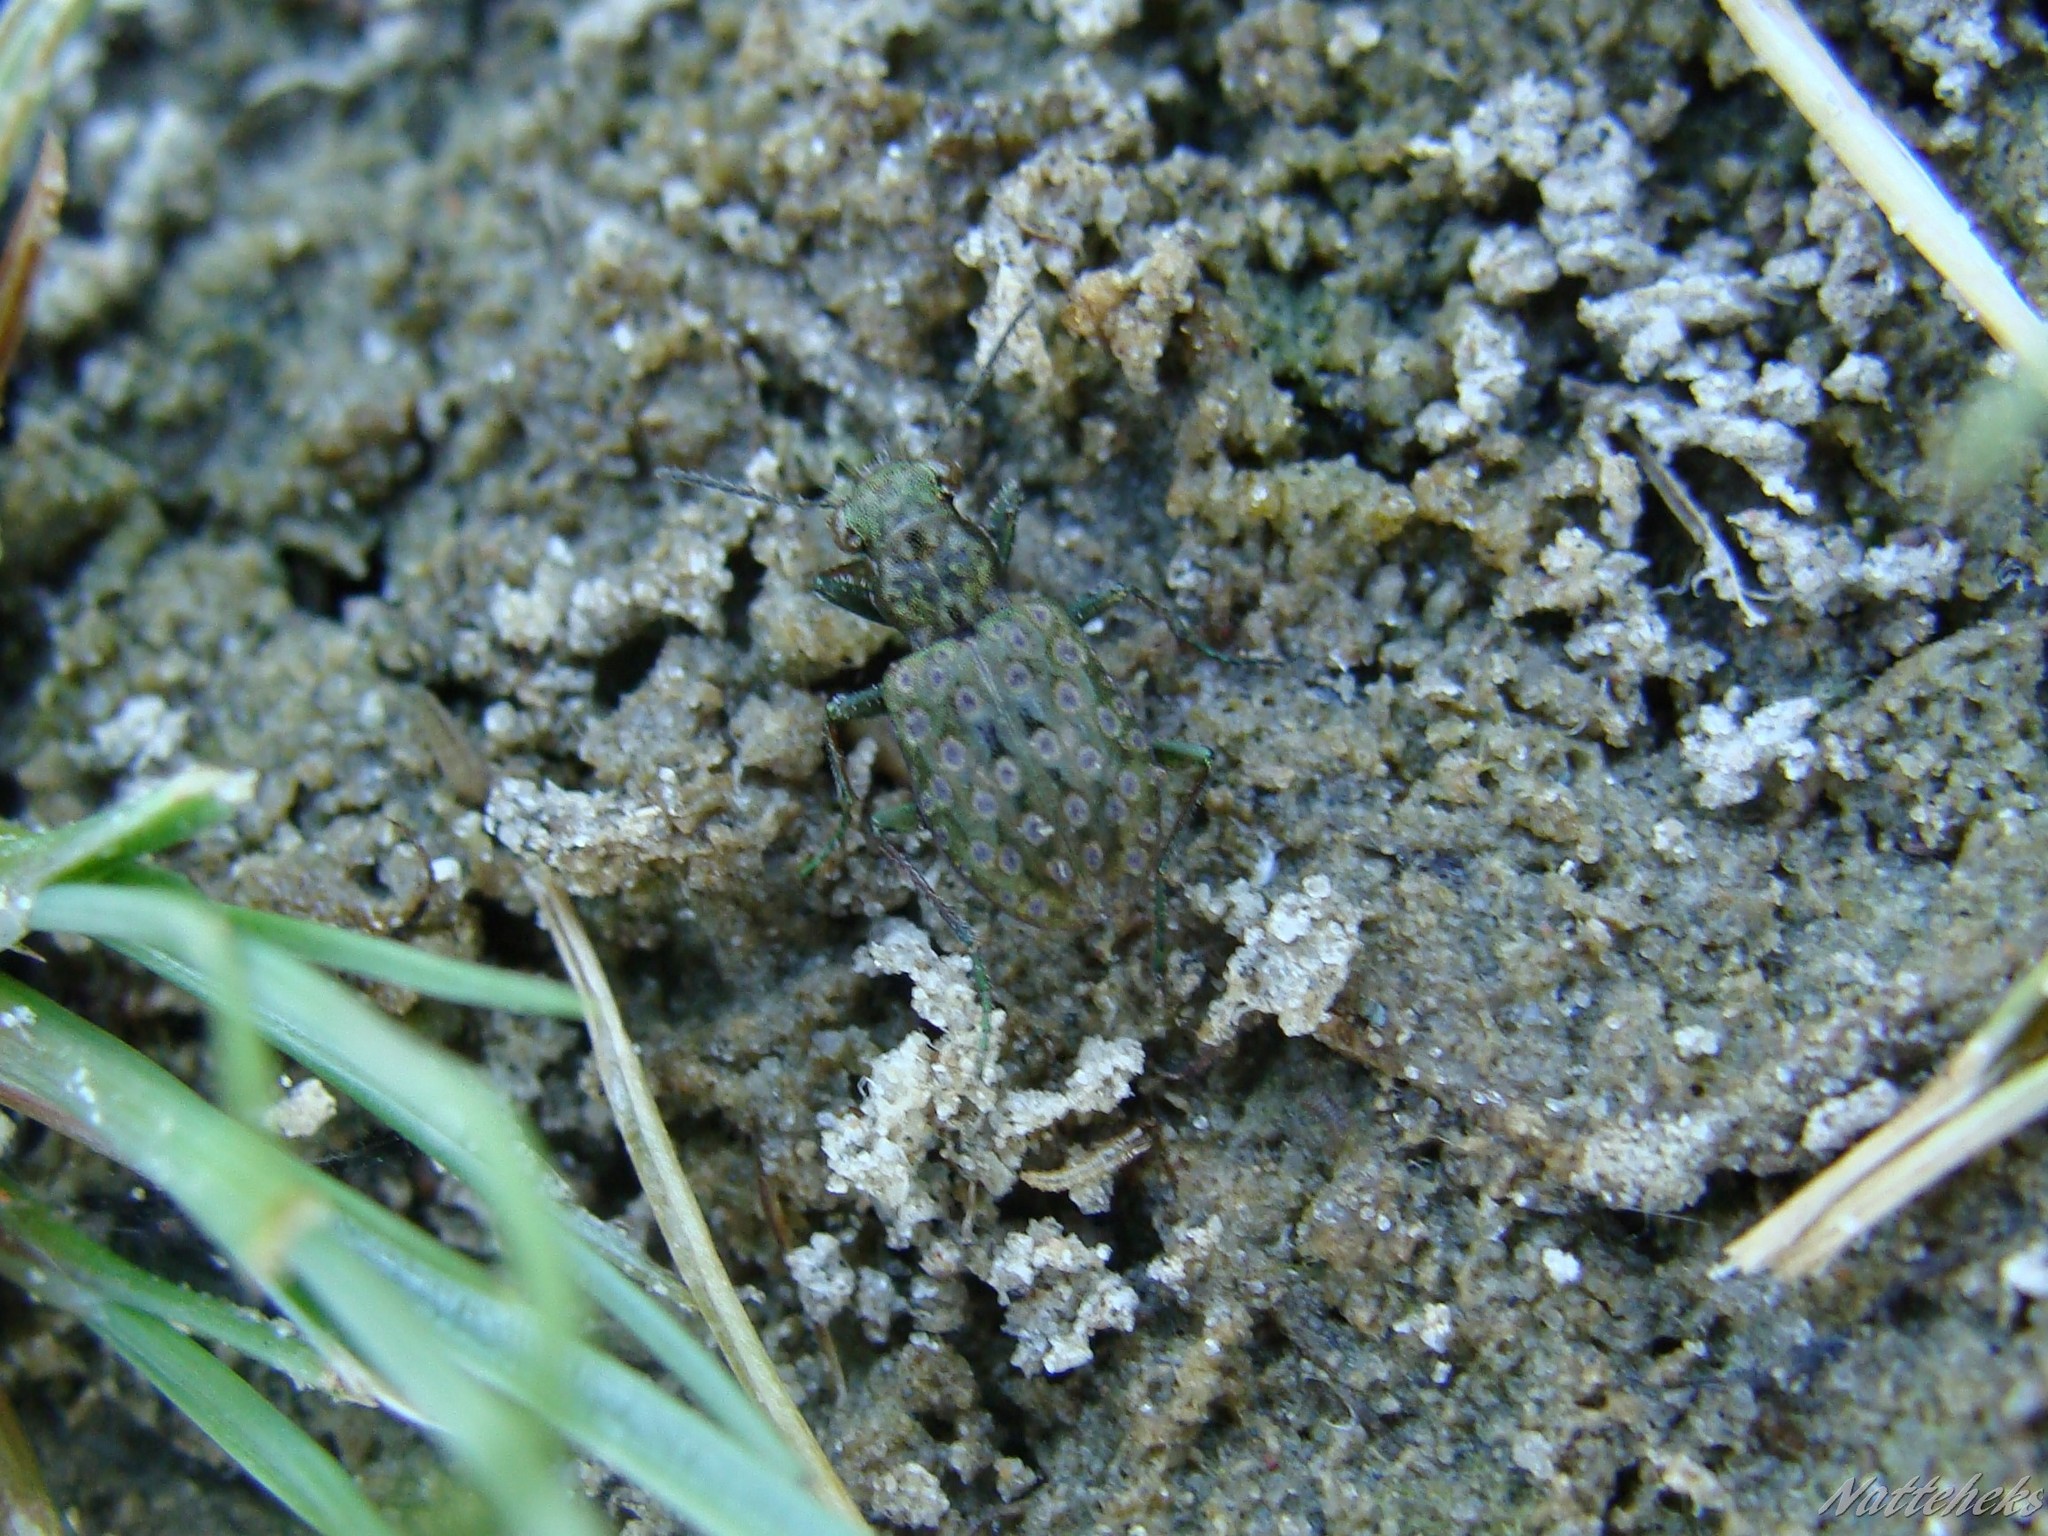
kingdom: Animalia
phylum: Arthropoda
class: Insecta
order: Coleoptera
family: Carabidae
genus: Elaphrus
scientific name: Elaphrus riparius
